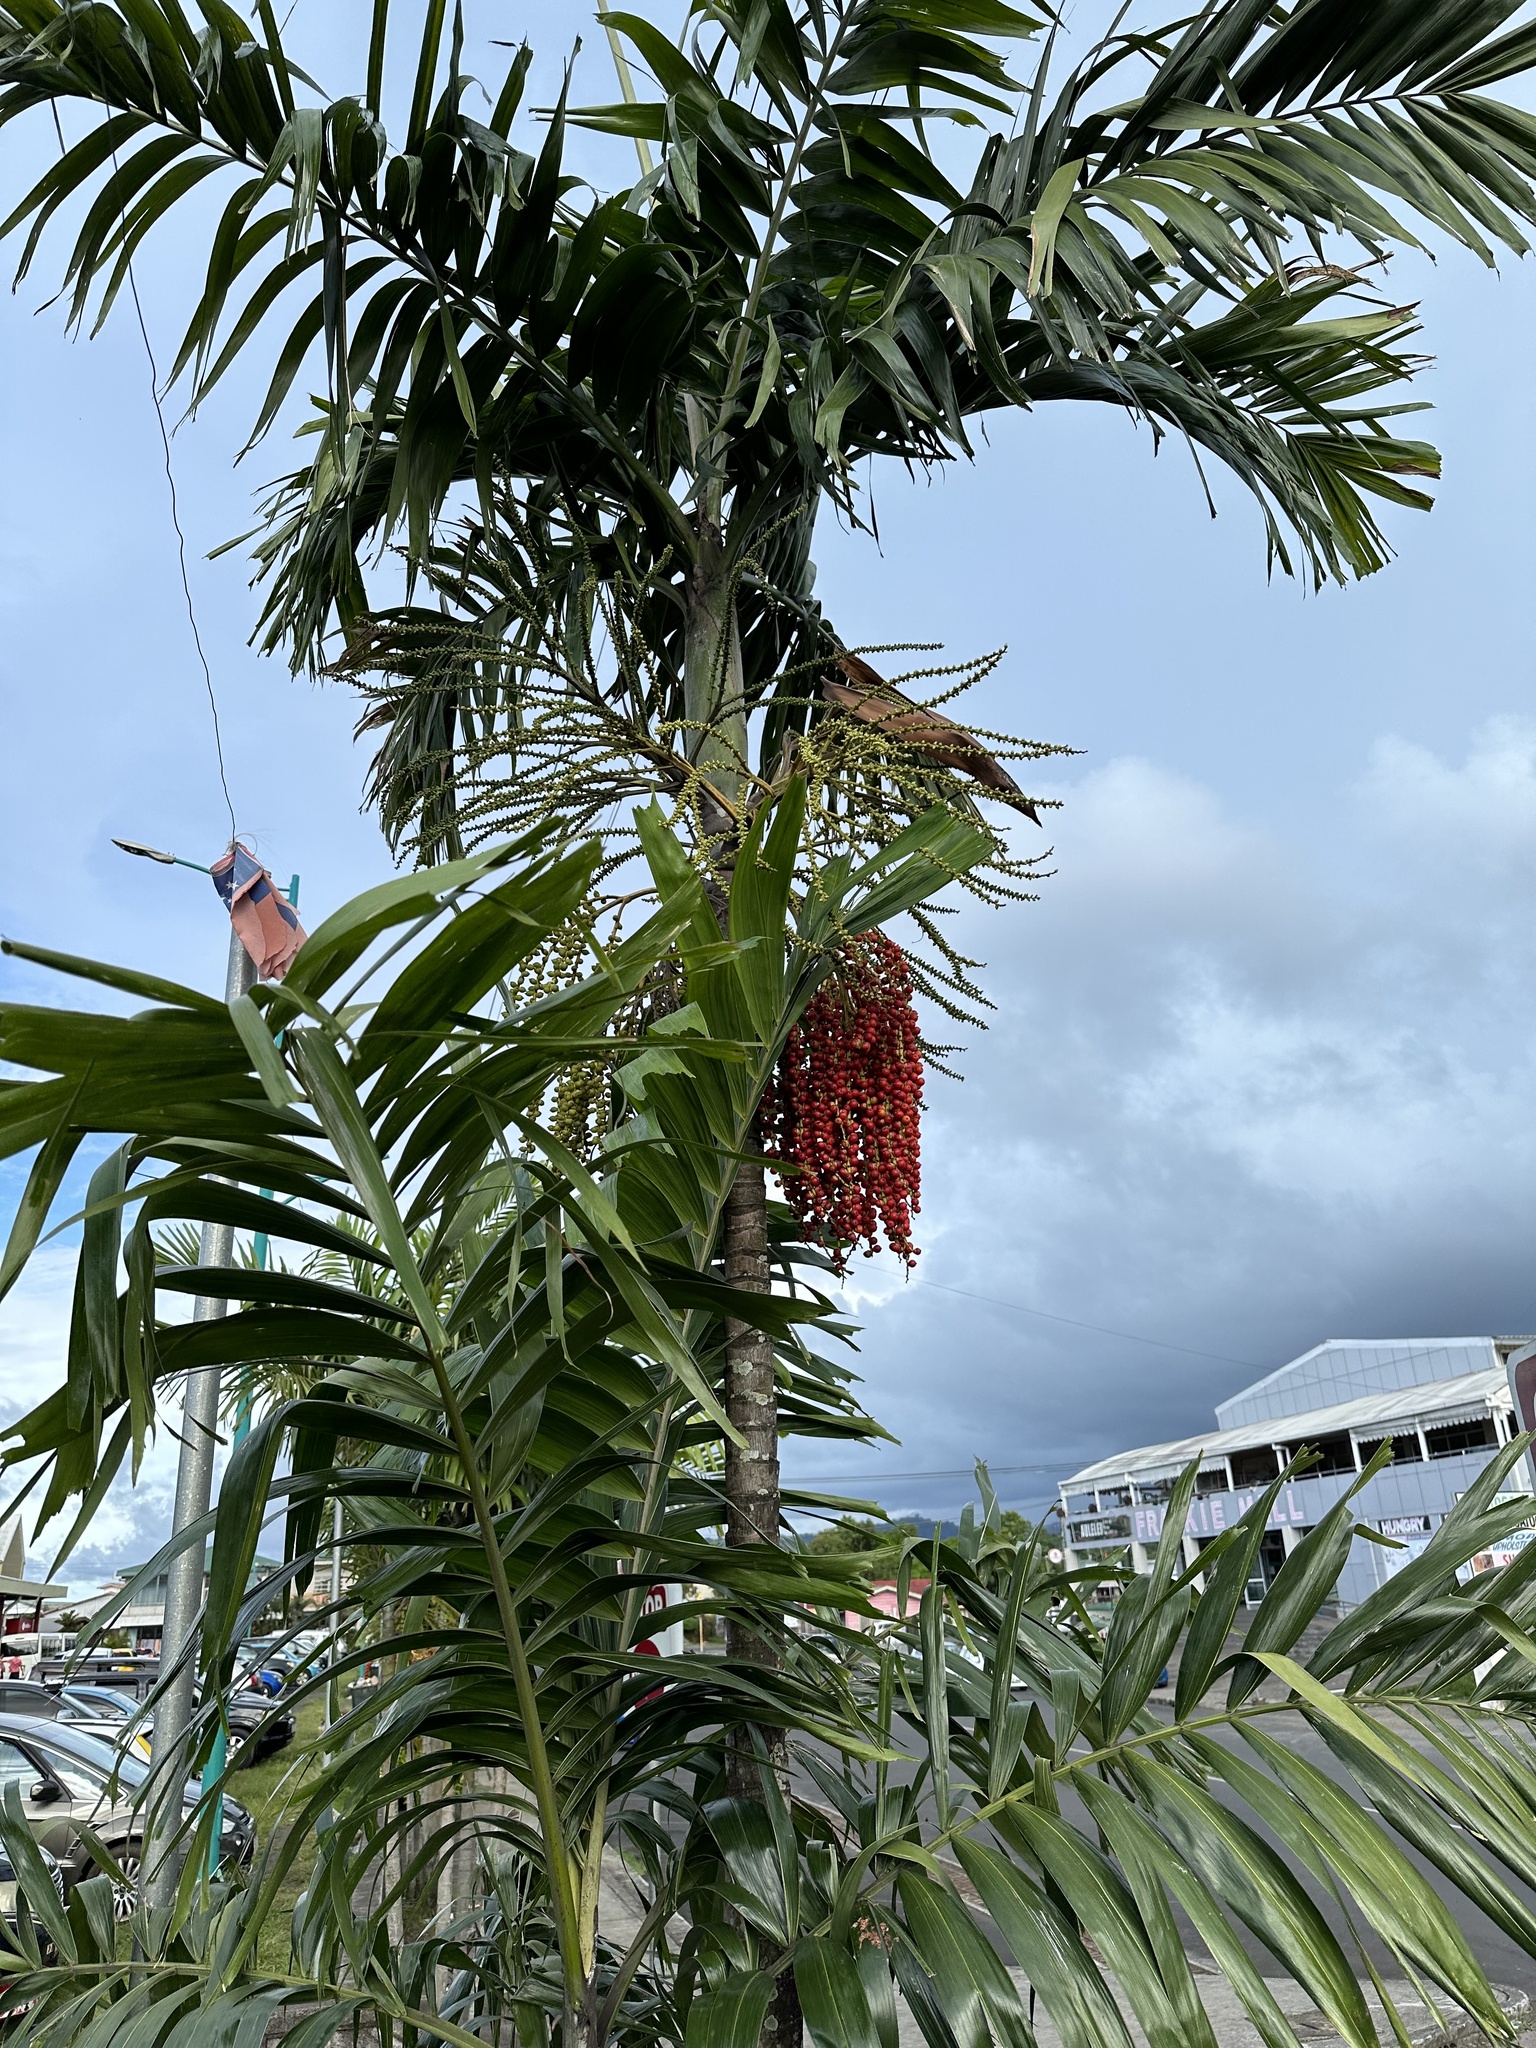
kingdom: Plantae
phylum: Tracheophyta
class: Liliopsida
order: Arecales
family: Arecaceae
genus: Ptychosperma
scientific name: Ptychosperma macarthurii
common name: Macarthur palm
